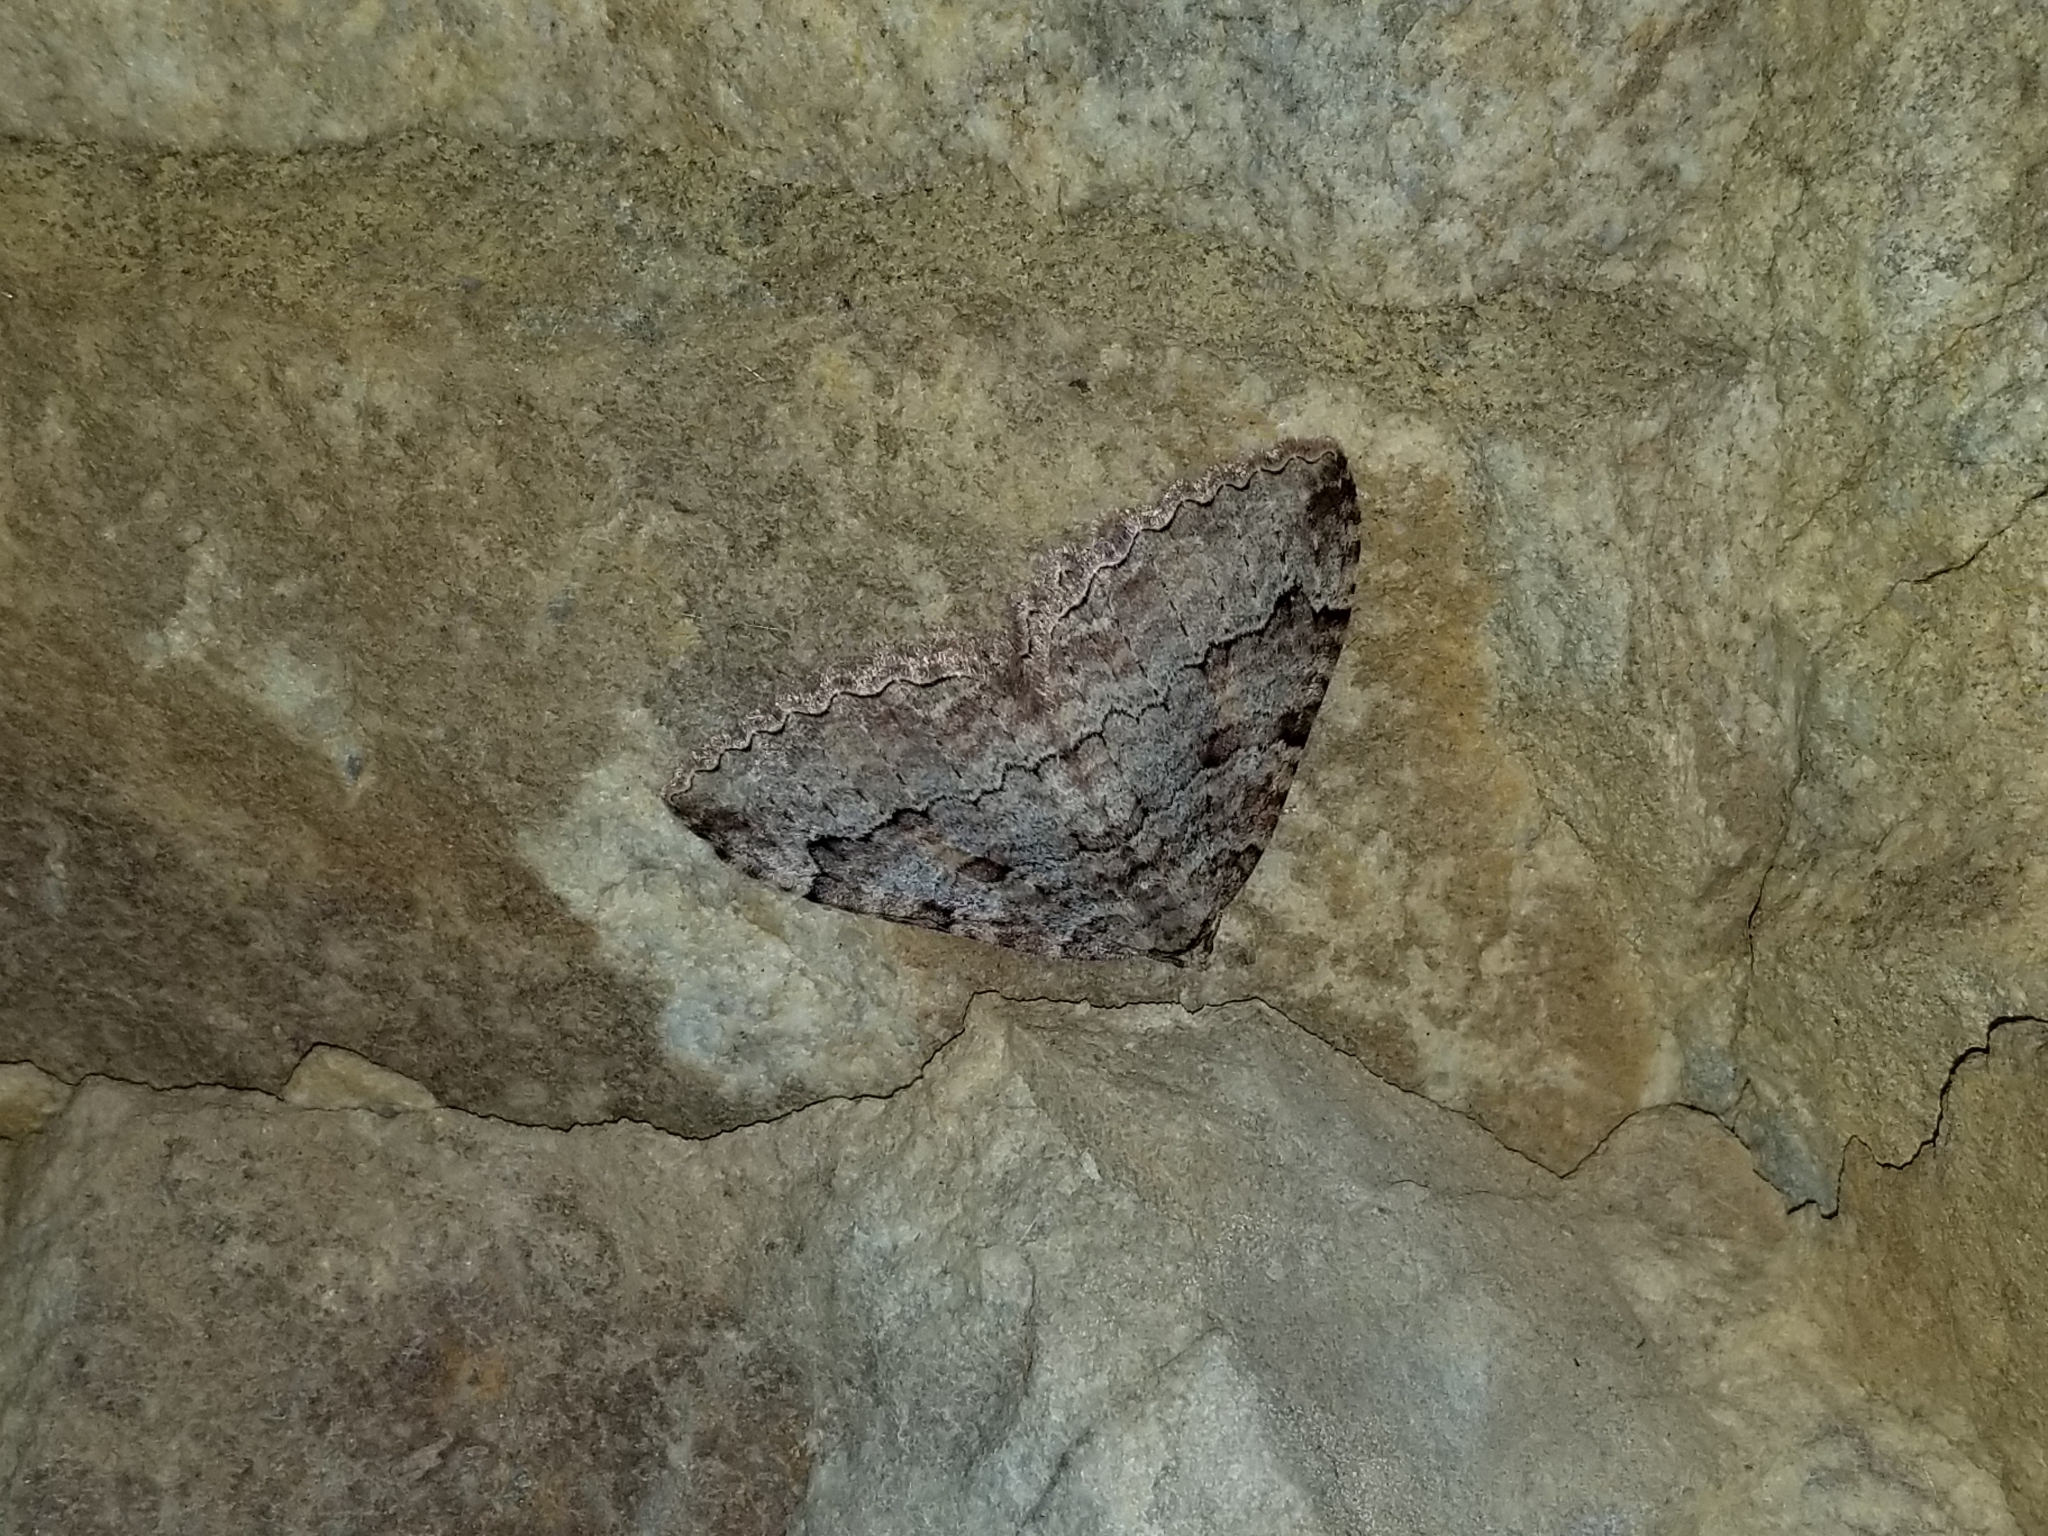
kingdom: Animalia
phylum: Arthropoda
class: Insecta
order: Lepidoptera
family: Geometridae
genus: Triphosa
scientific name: Triphosa haesitata
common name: Tissue moth
